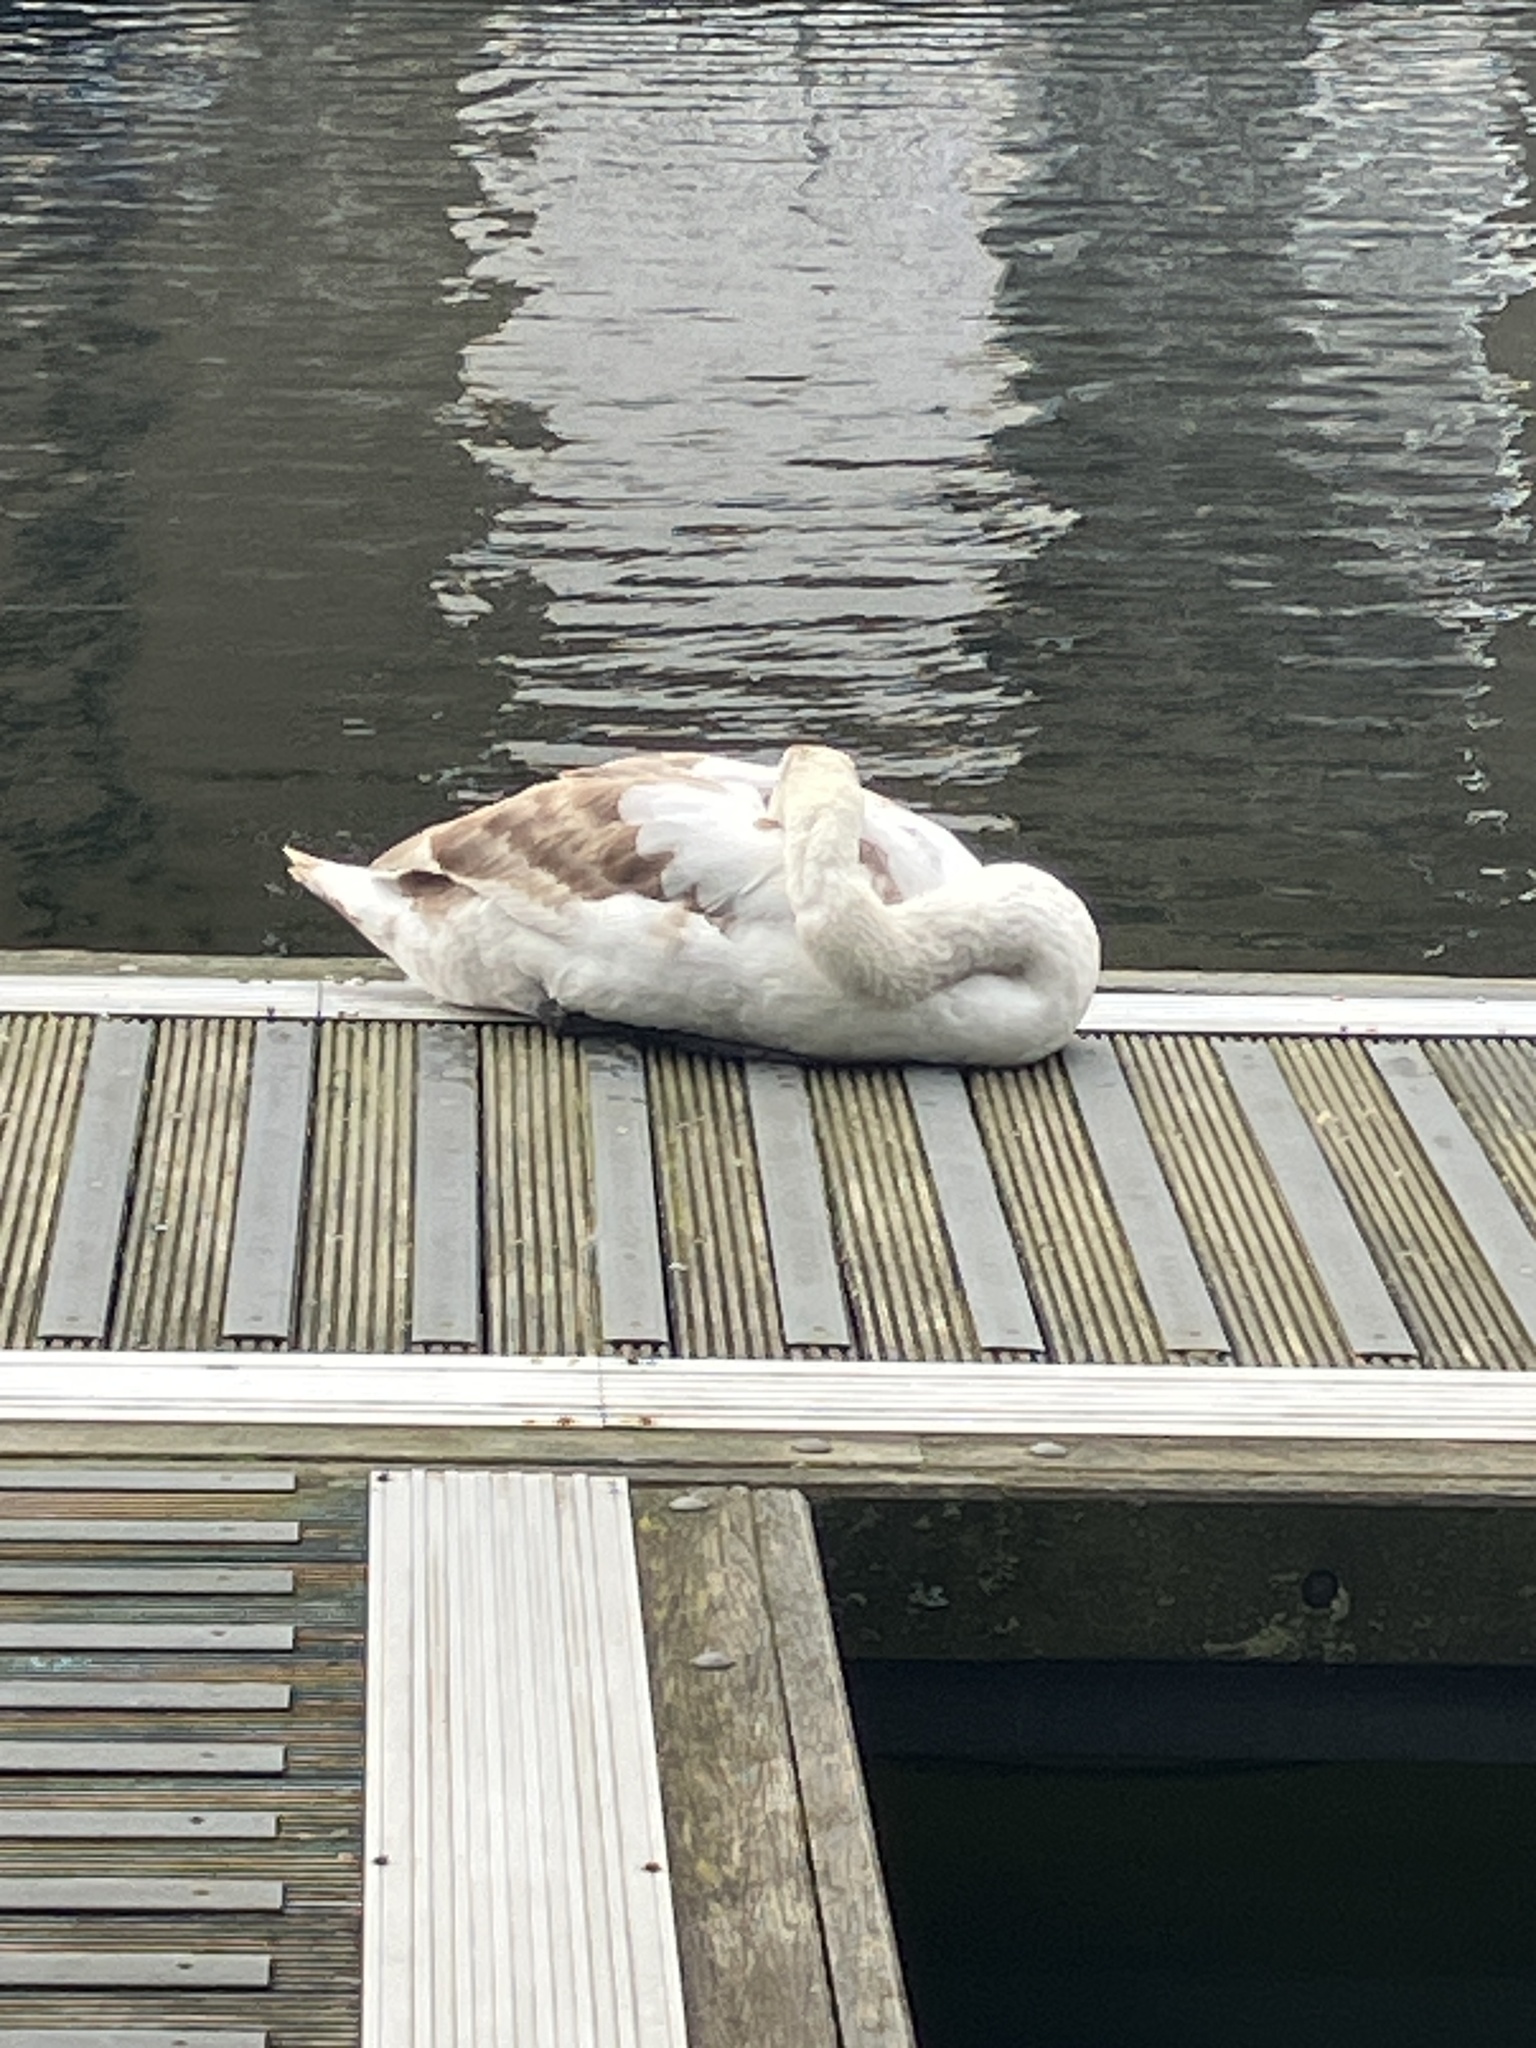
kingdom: Animalia
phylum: Chordata
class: Aves
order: Anseriformes
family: Anatidae
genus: Cygnus
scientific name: Cygnus olor
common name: Mute swan
